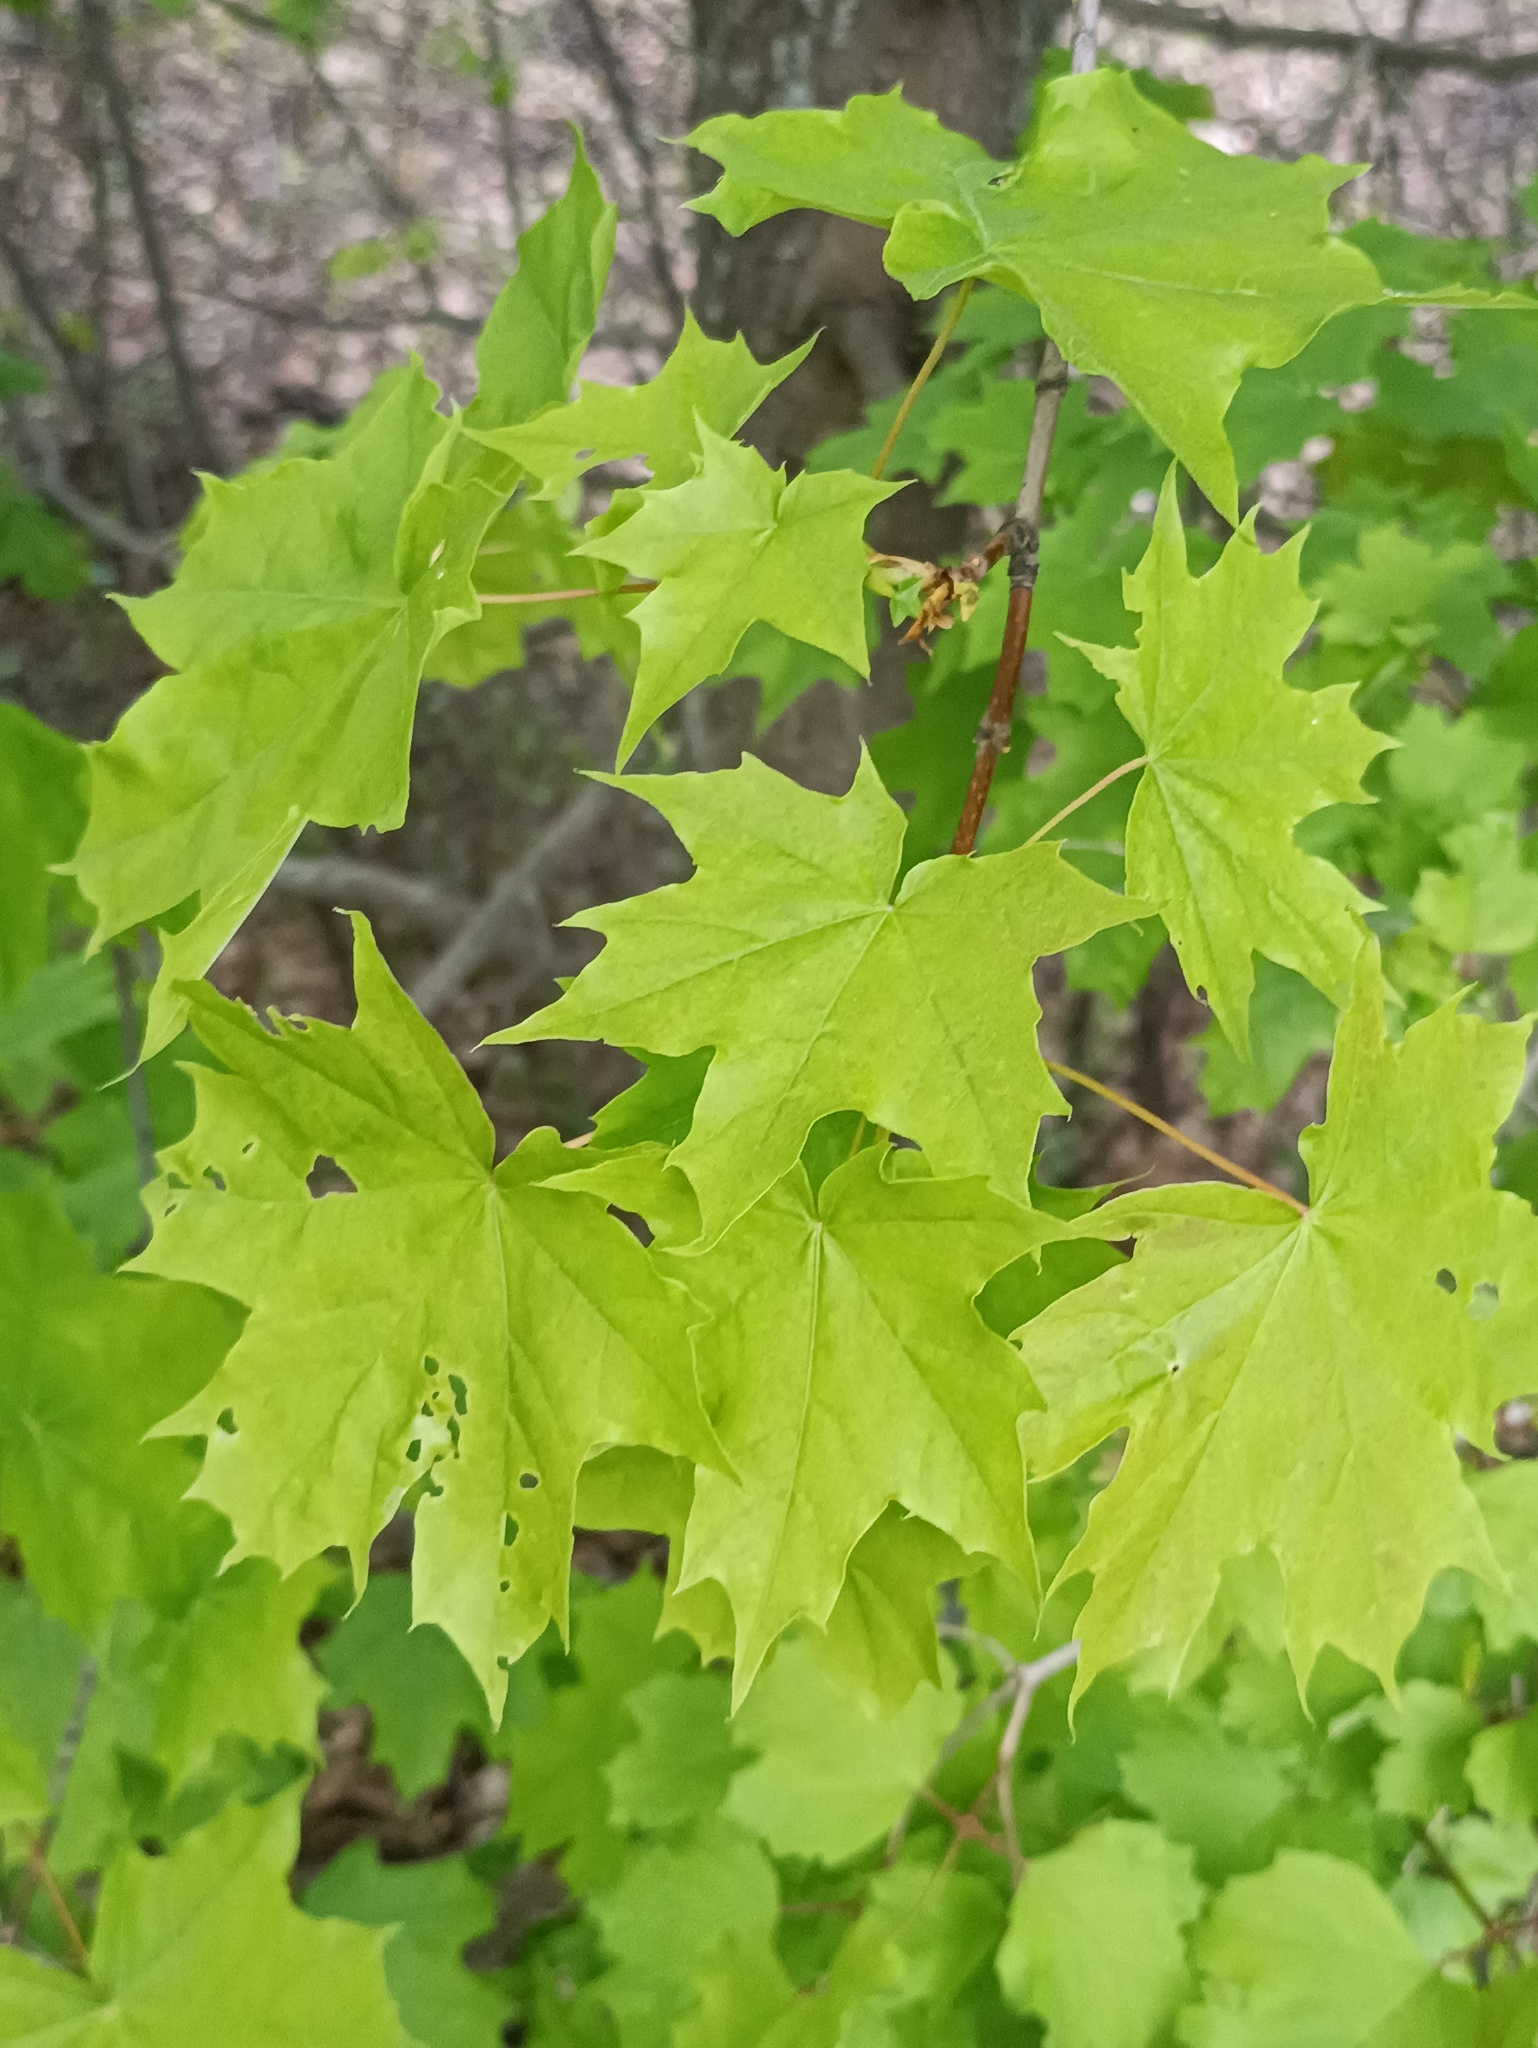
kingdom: Plantae
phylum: Tracheophyta
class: Magnoliopsida
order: Sapindales
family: Sapindaceae
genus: Acer
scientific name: Acer platanoides
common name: Norway maple
